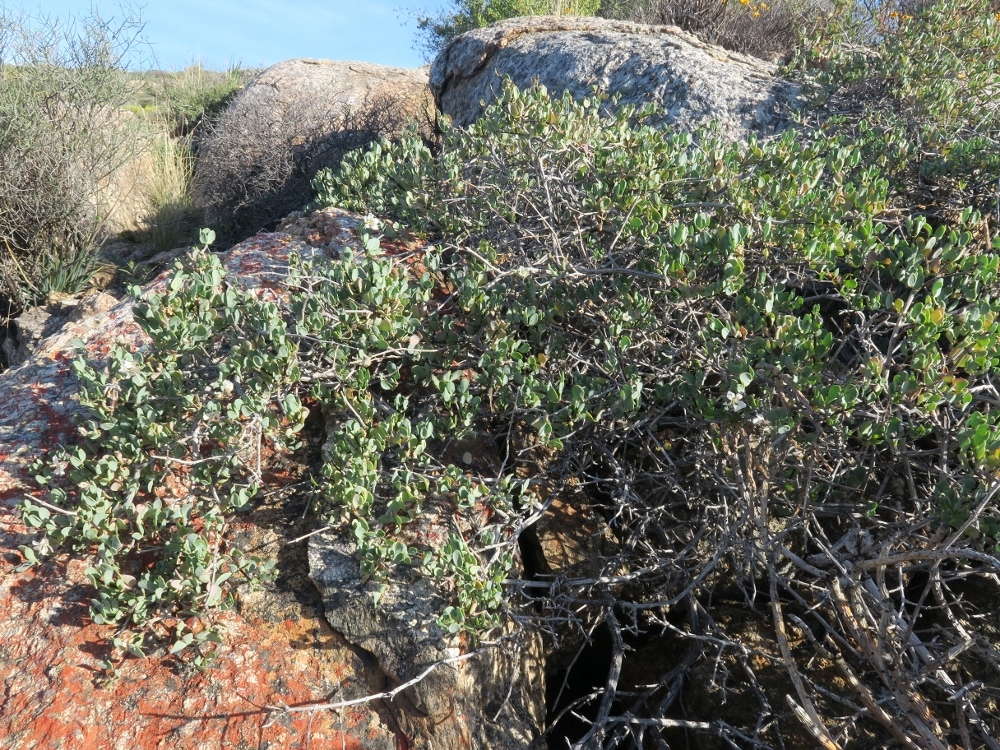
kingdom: Plantae
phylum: Tracheophyta
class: Magnoliopsida
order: Zygophyllales
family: Zygophyllaceae
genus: Roepera
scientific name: Roepera leptopetala
